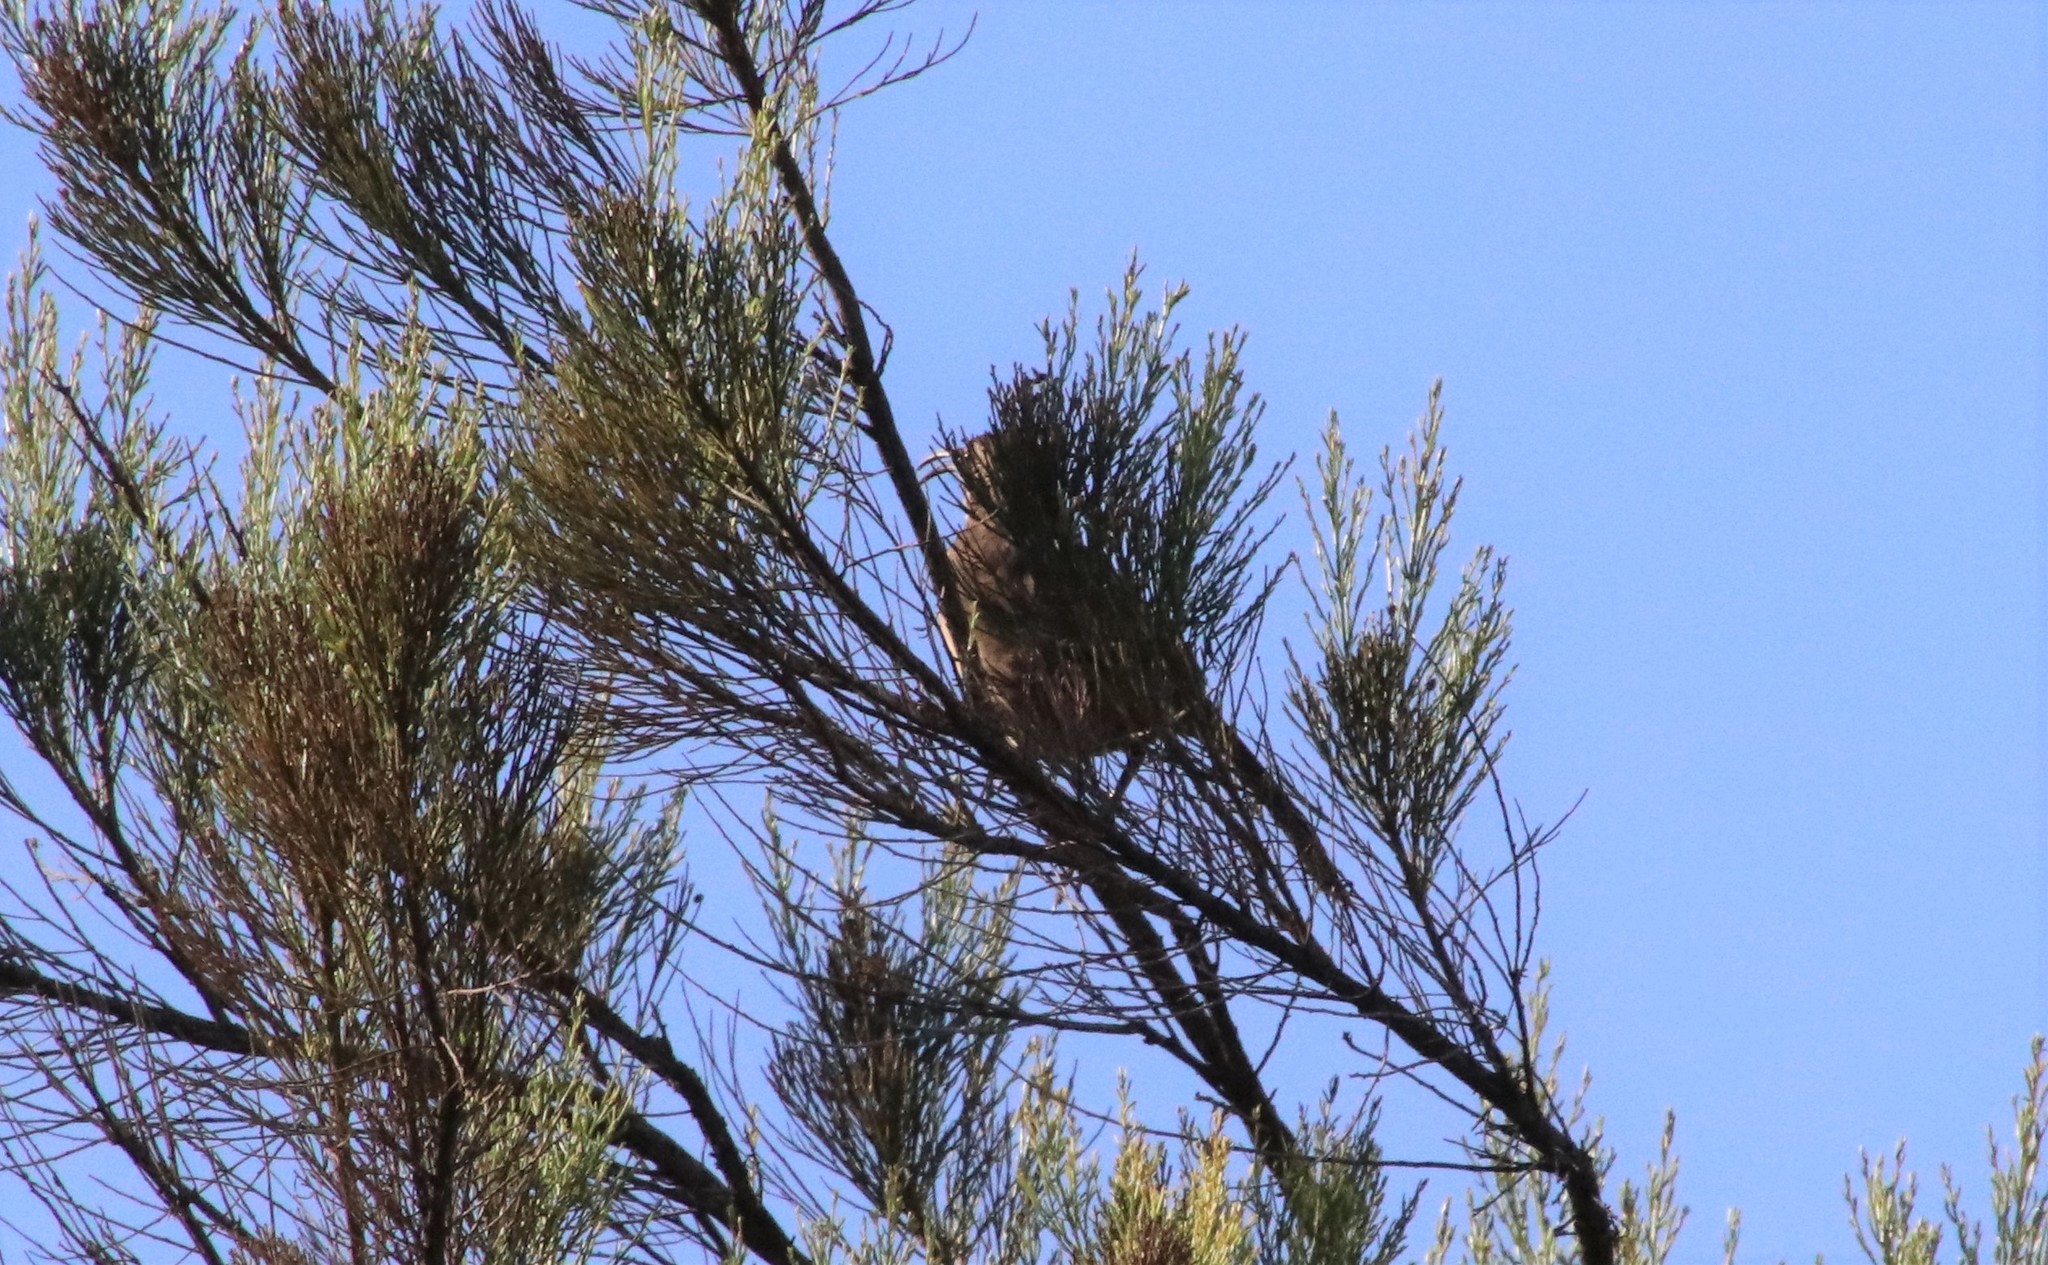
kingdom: Animalia
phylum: Chordata
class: Aves
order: Passeriformes
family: Mimidae
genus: Toxostoma
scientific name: Toxostoma redivivum
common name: California thrasher
